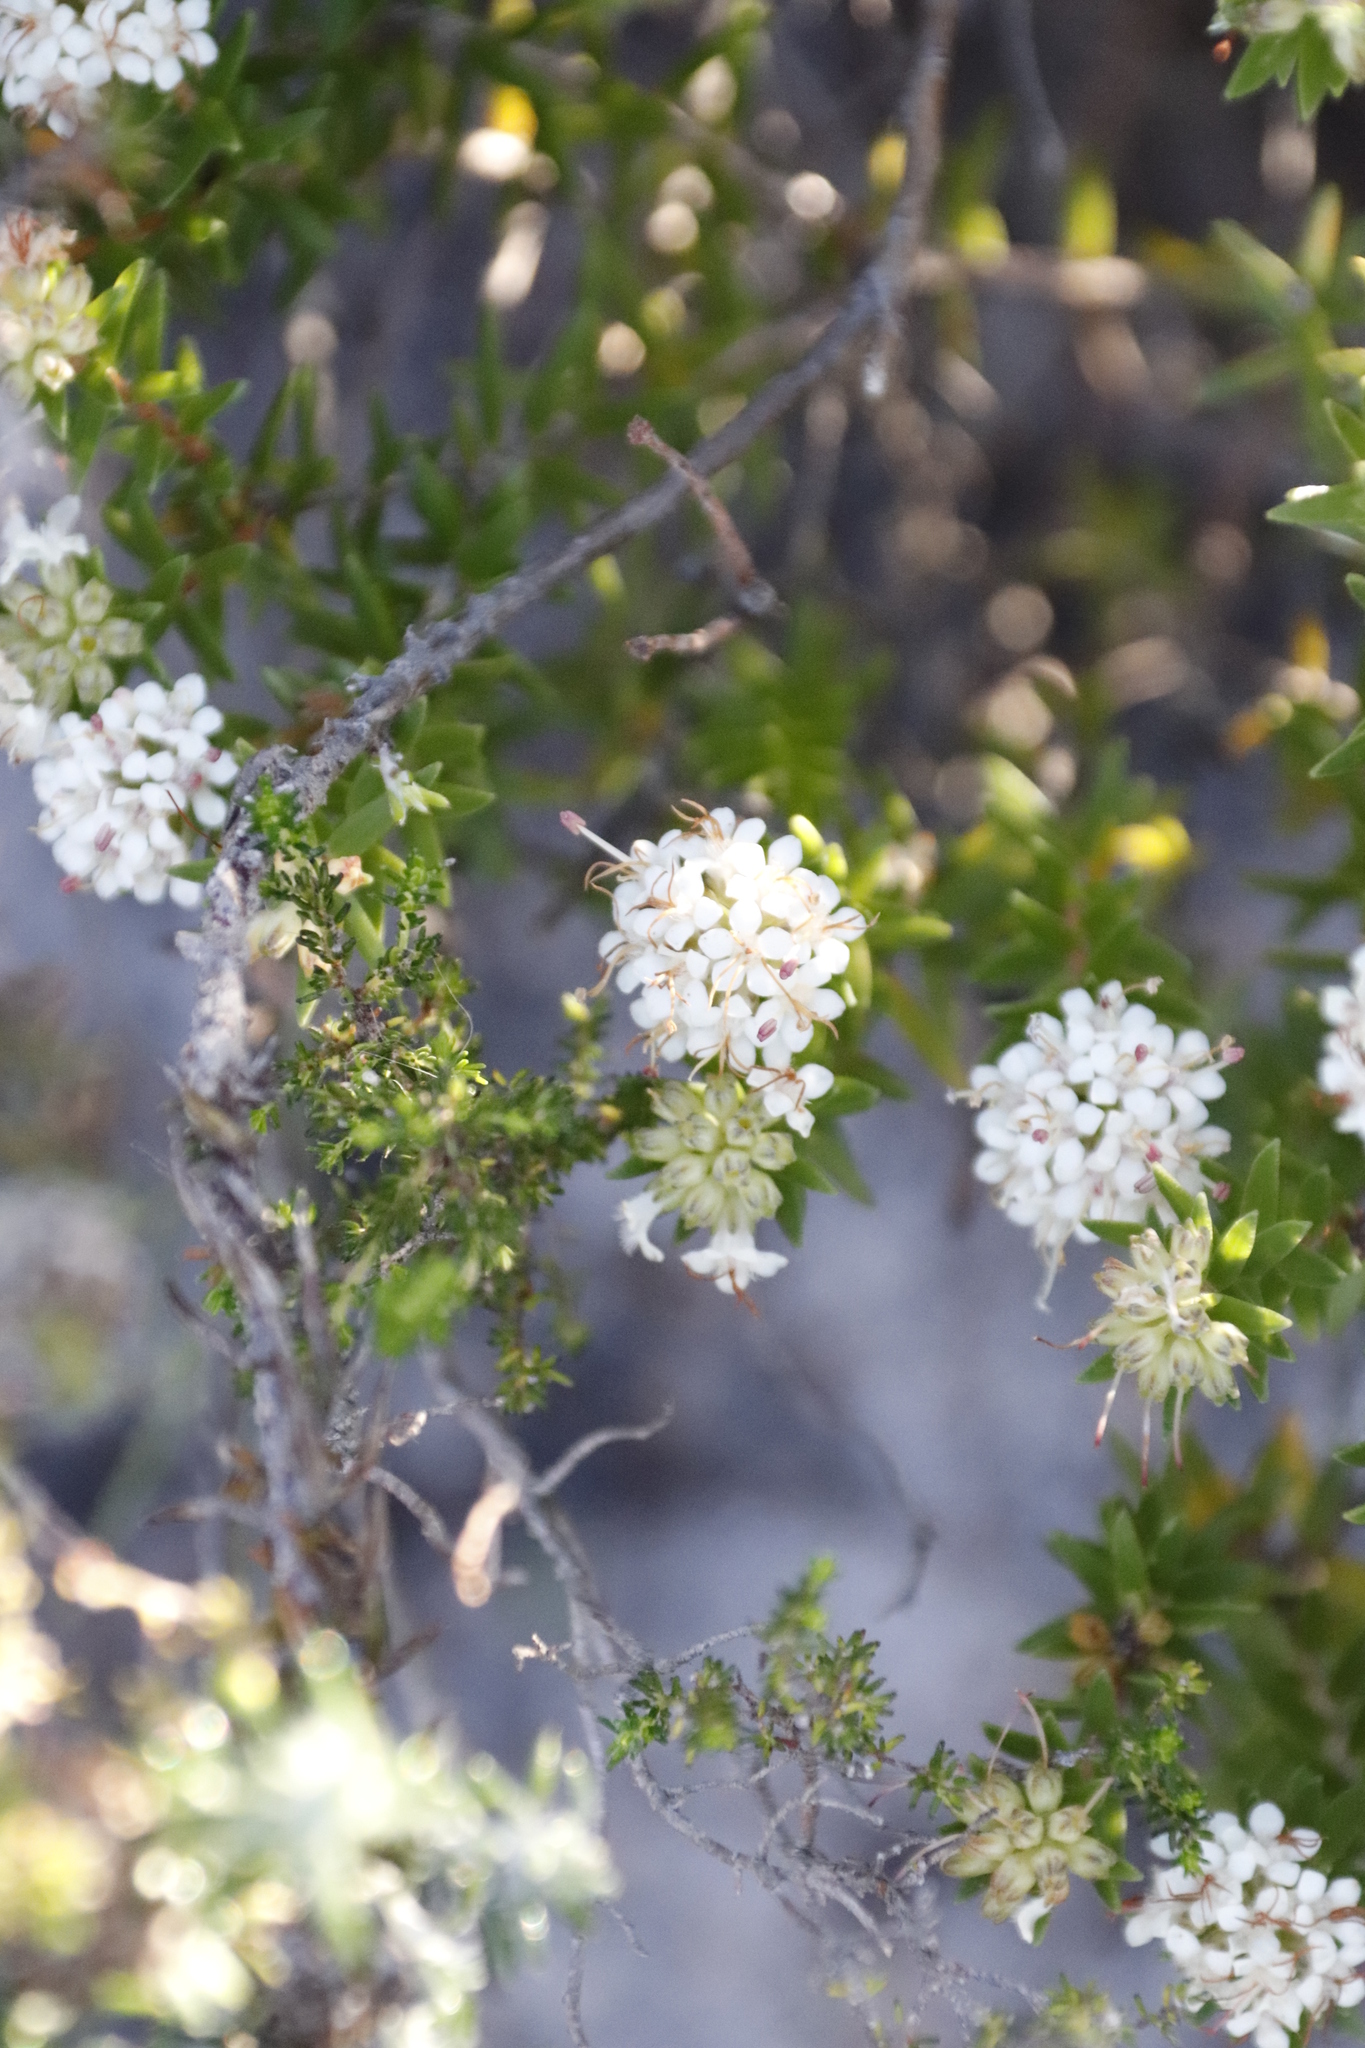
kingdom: Plantae
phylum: Tracheophyta
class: Magnoliopsida
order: Sapindales
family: Rutaceae
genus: Macrostylis
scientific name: Macrostylis villosa
